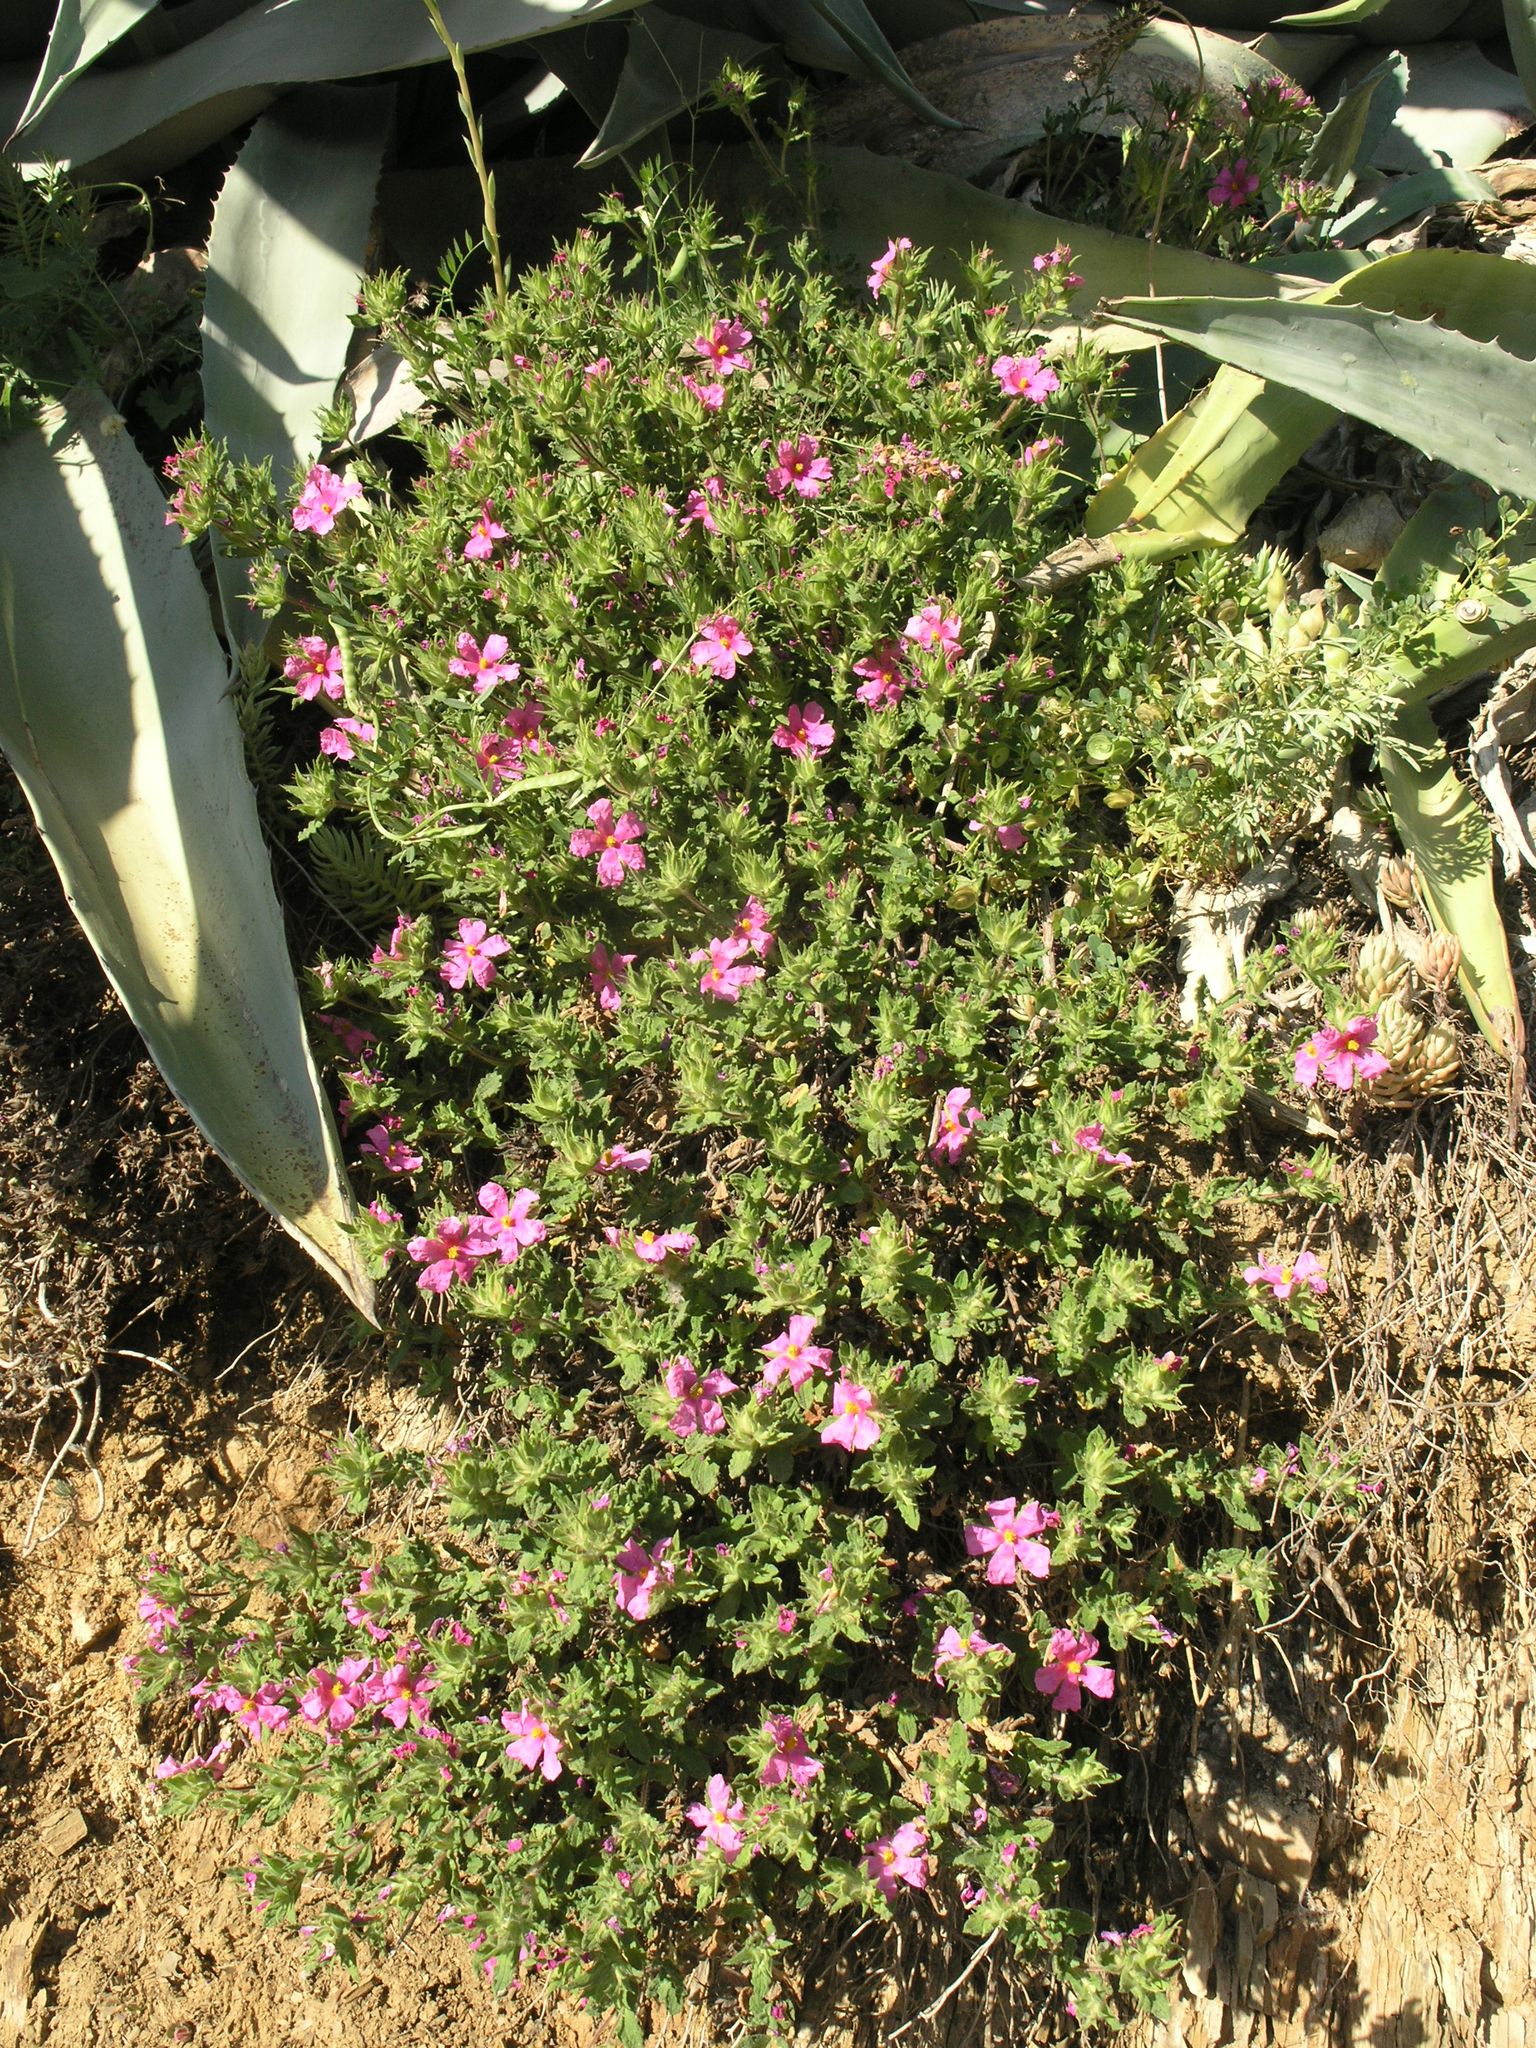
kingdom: Plantae
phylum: Tracheophyta
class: Magnoliopsida
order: Malvales
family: Cistaceae
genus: Cistus
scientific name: Cistus crispus
